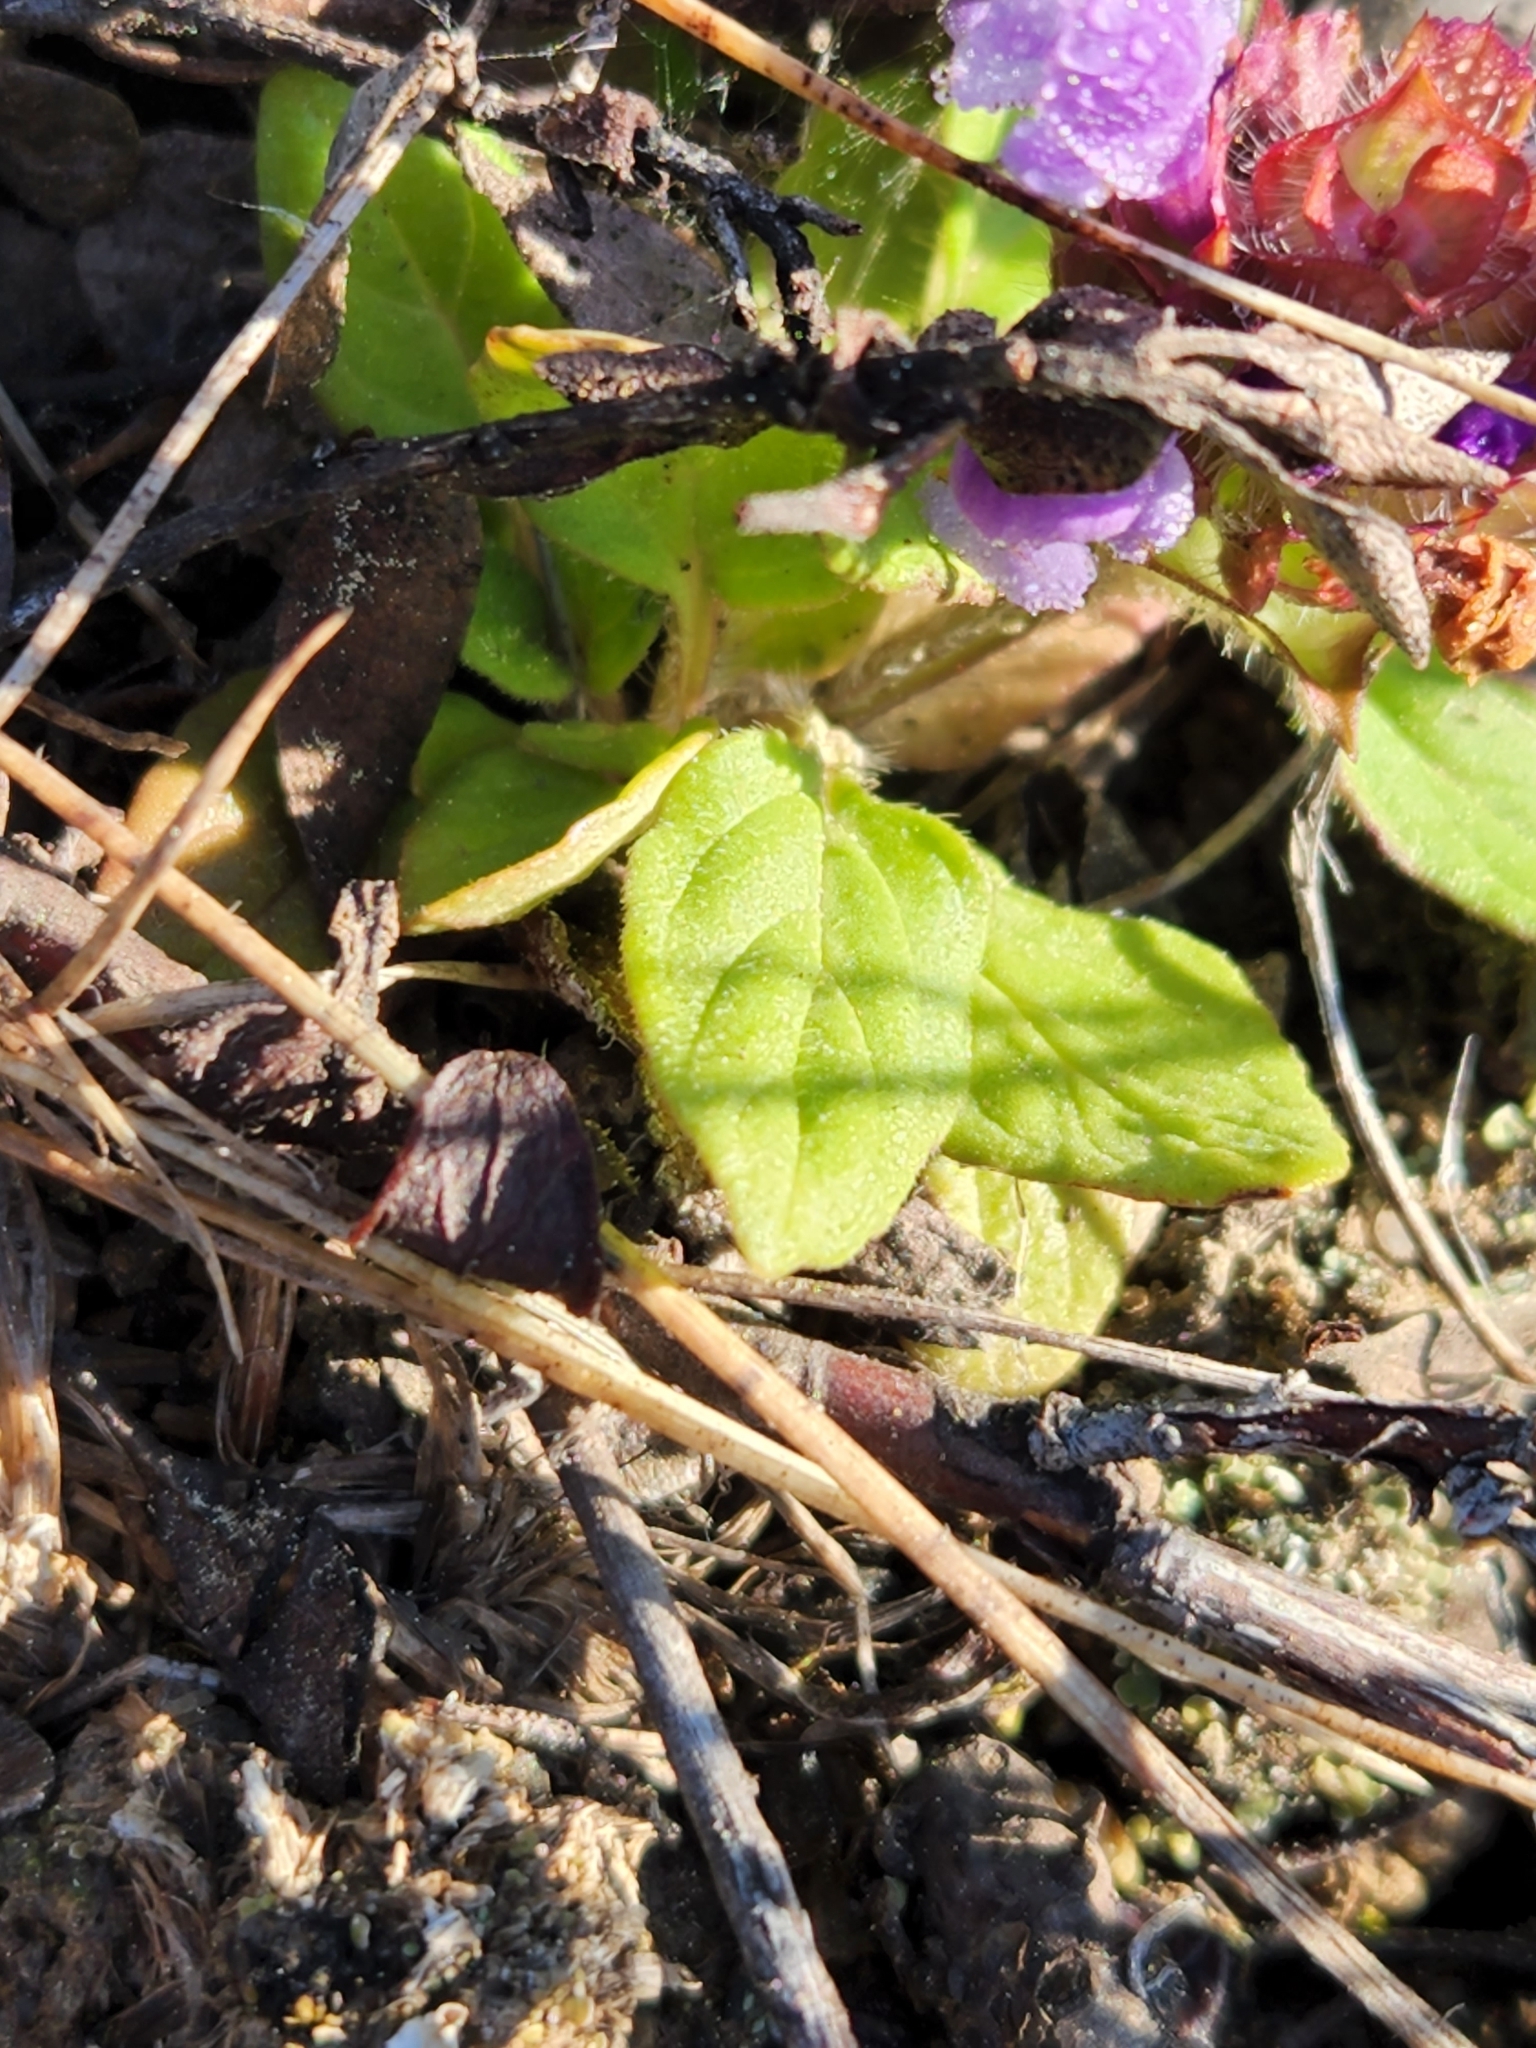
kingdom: Plantae
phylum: Tracheophyta
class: Magnoliopsida
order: Lamiales
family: Lamiaceae
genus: Prunella
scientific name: Prunella vulgaris
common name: Heal-all
